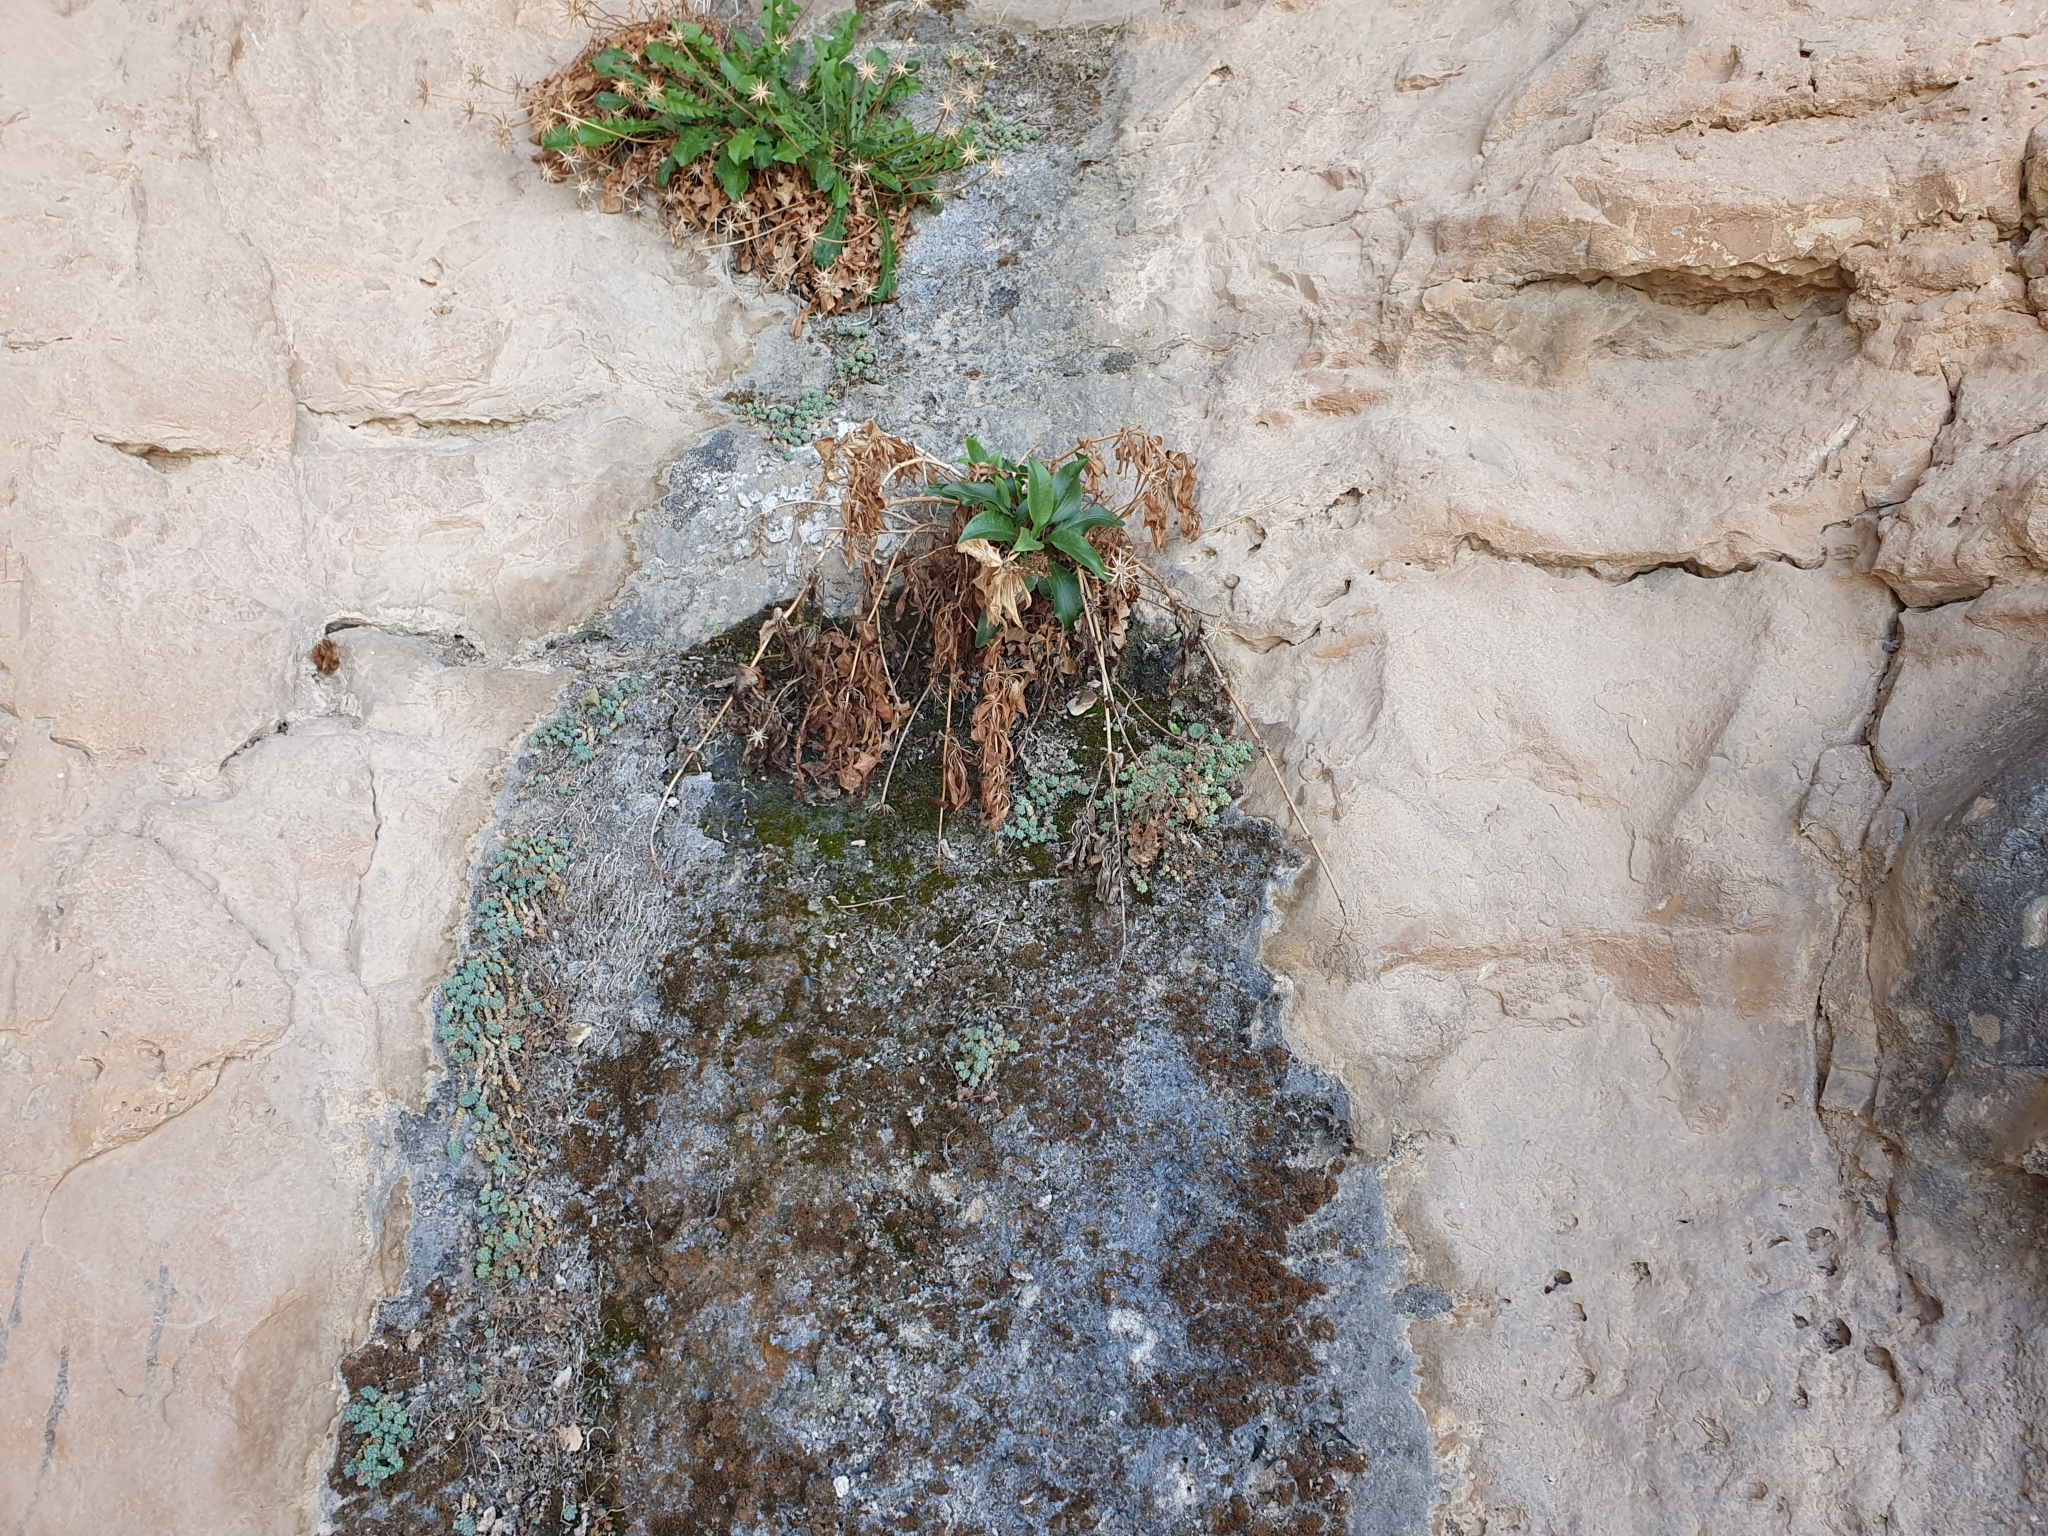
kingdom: Plantae
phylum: Tracheophyta
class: Magnoliopsida
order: Dipsacales
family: Caprifoliaceae
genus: Centranthus
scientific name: Centranthus ruber
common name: Red valerian
